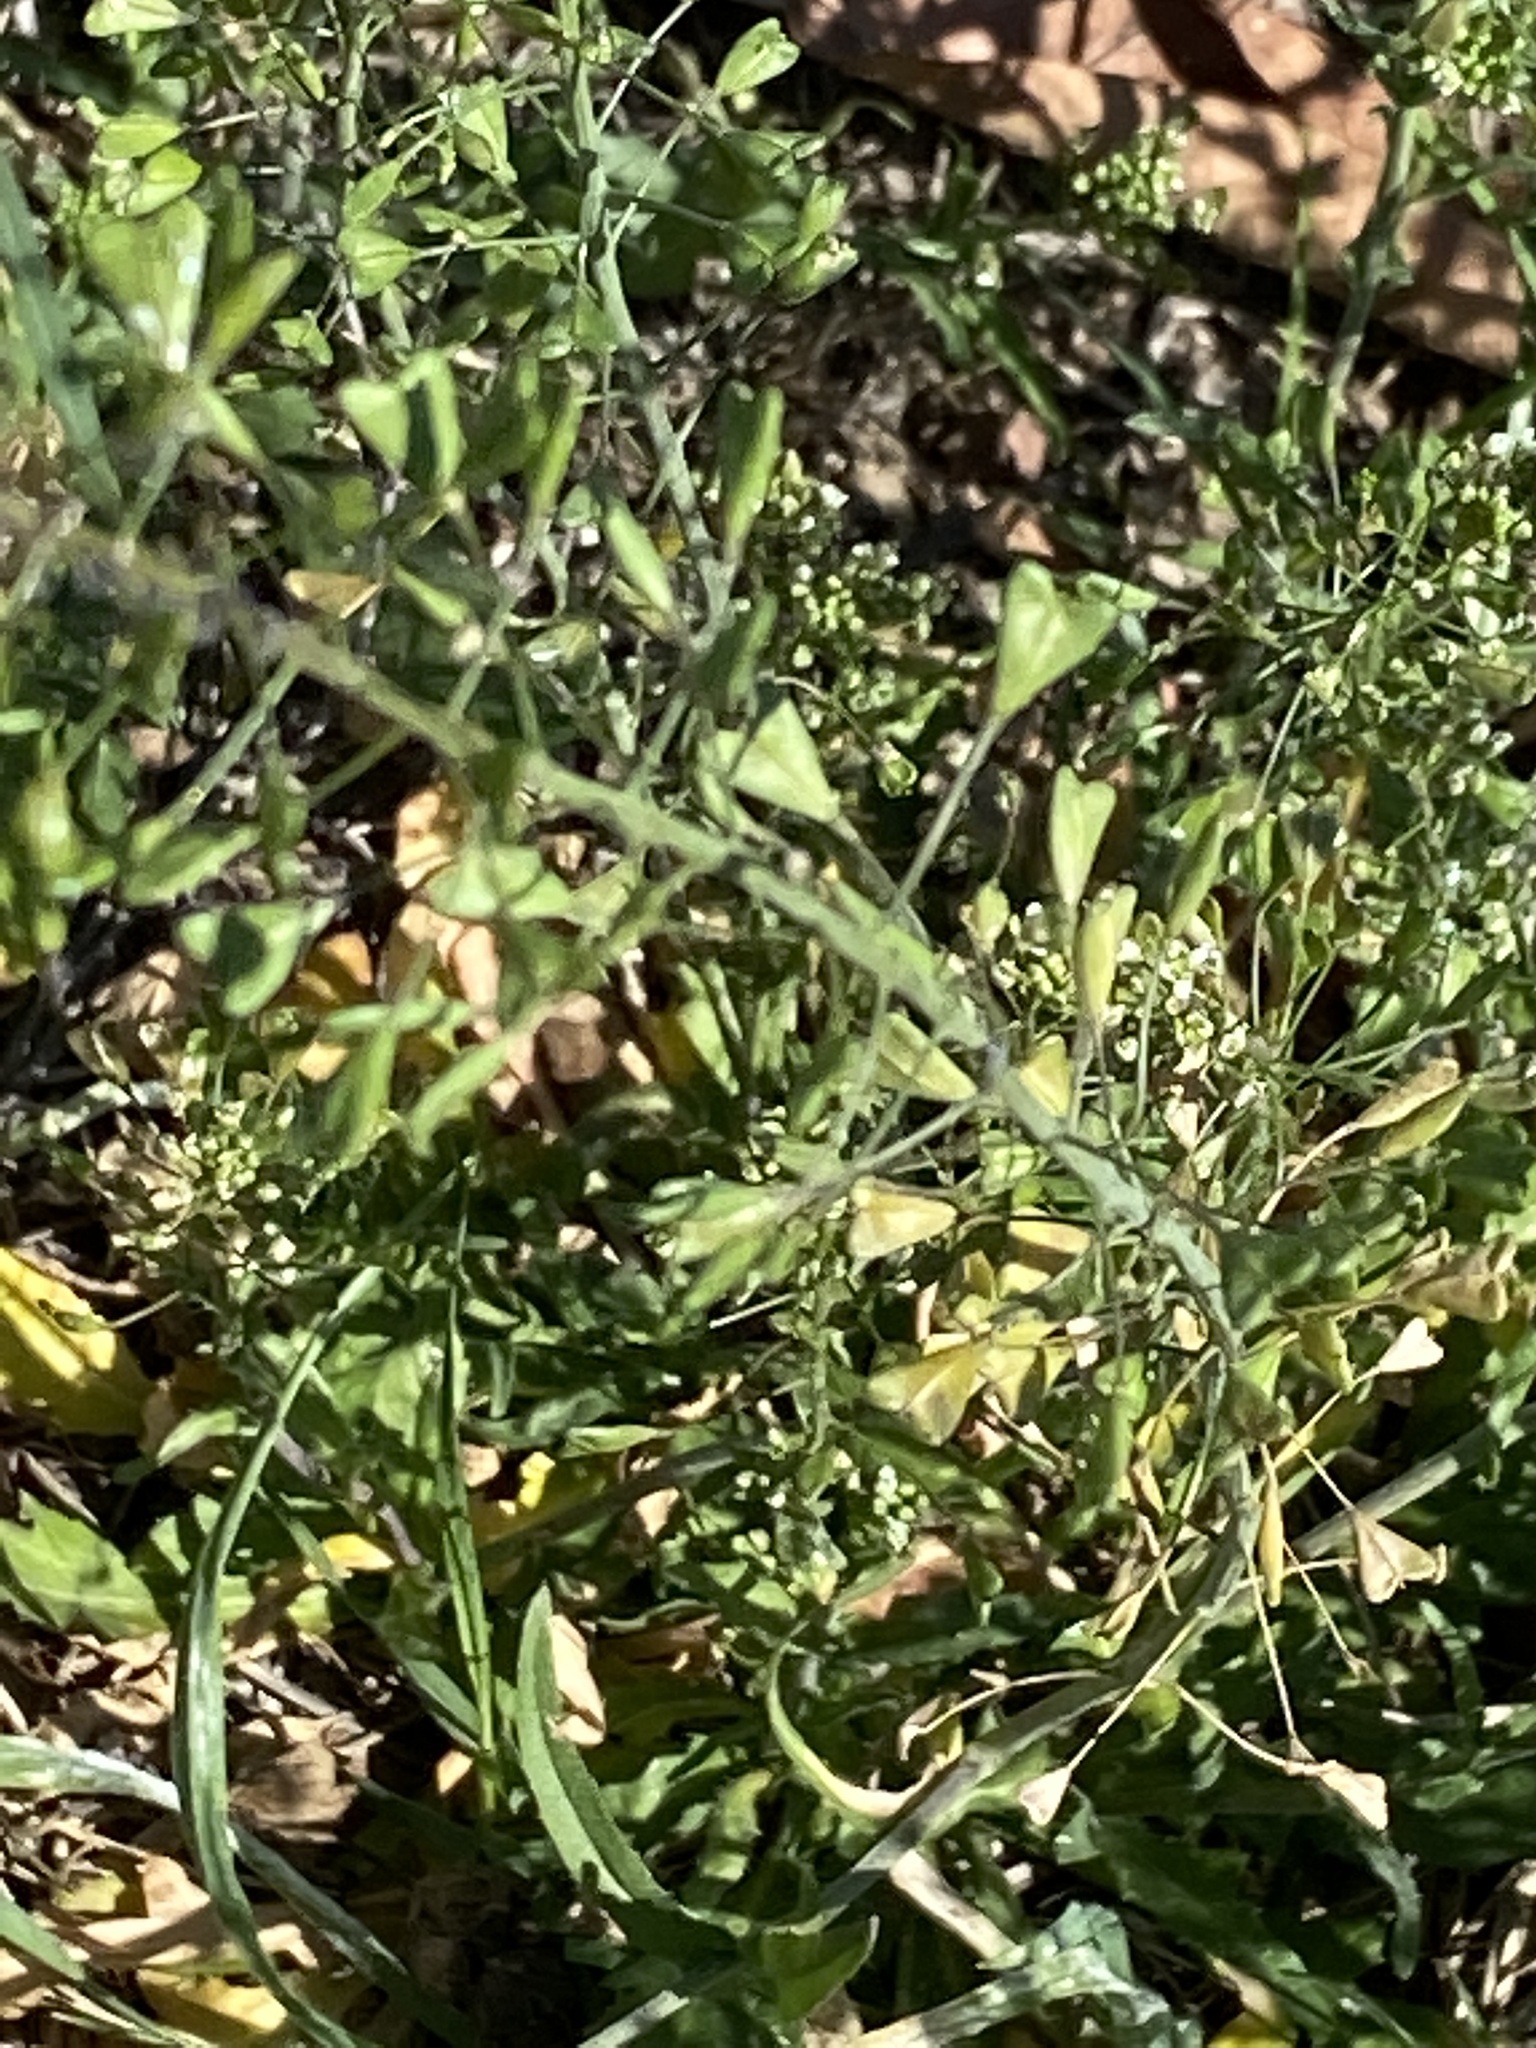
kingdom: Plantae
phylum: Tracheophyta
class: Magnoliopsida
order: Brassicales
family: Brassicaceae
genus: Capsella
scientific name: Capsella bursa-pastoris
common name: Shepherd's purse
